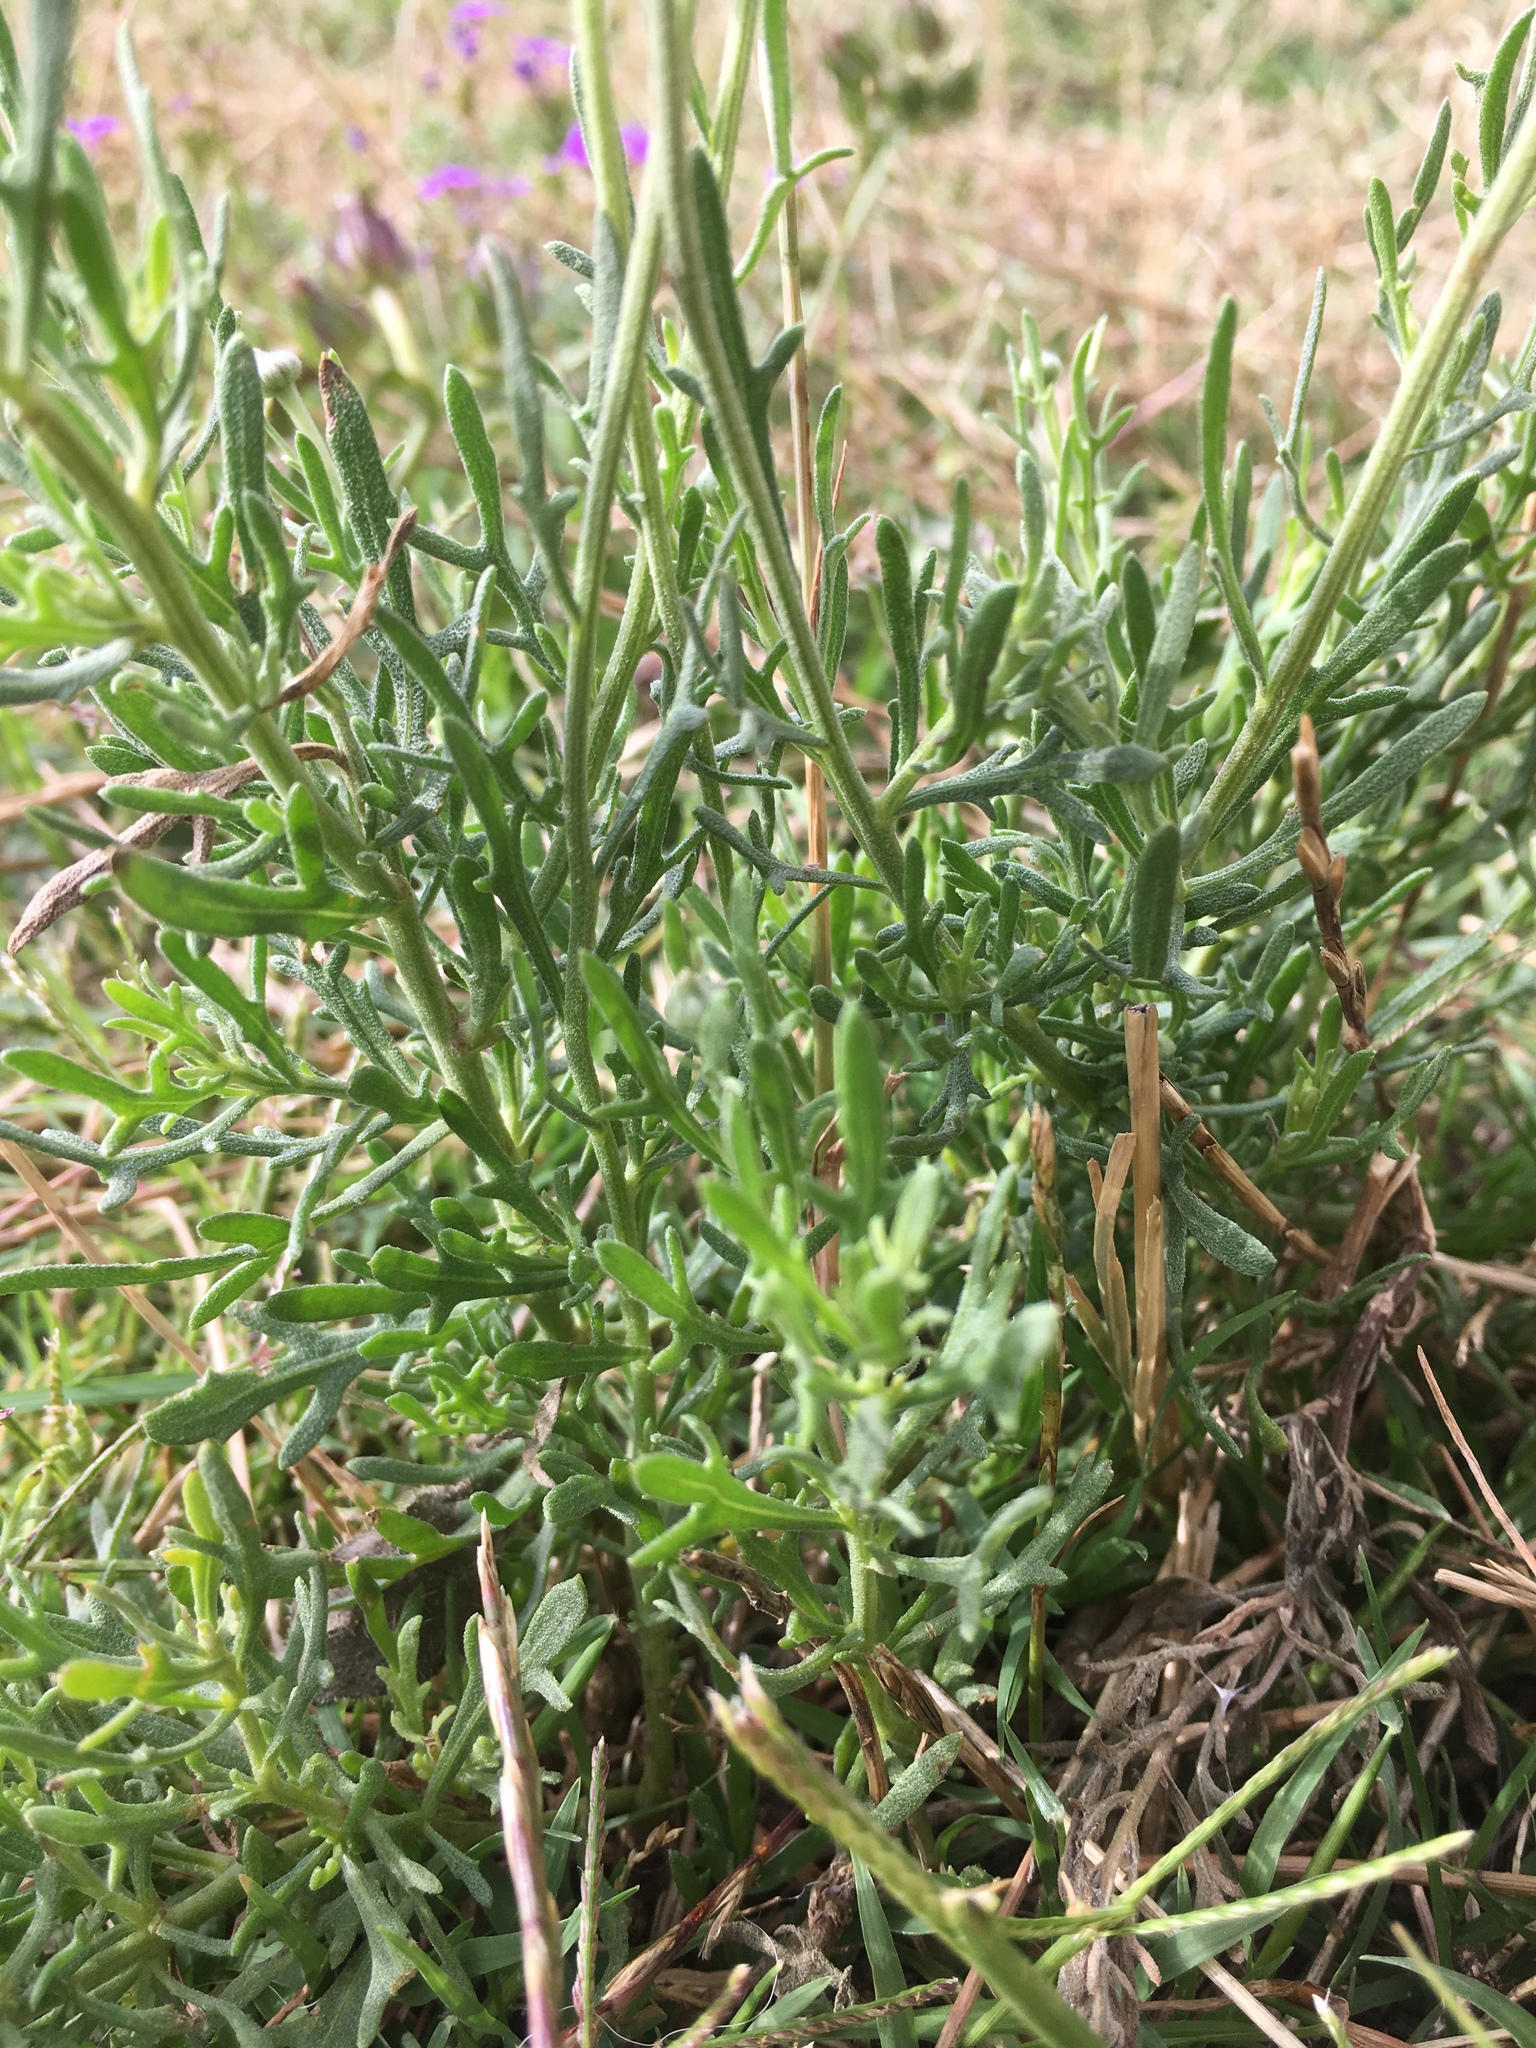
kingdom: Plantae
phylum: Tracheophyta
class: Magnoliopsida
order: Asterales
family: Asteraceae
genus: Helenium
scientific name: Helenium uniflorum
